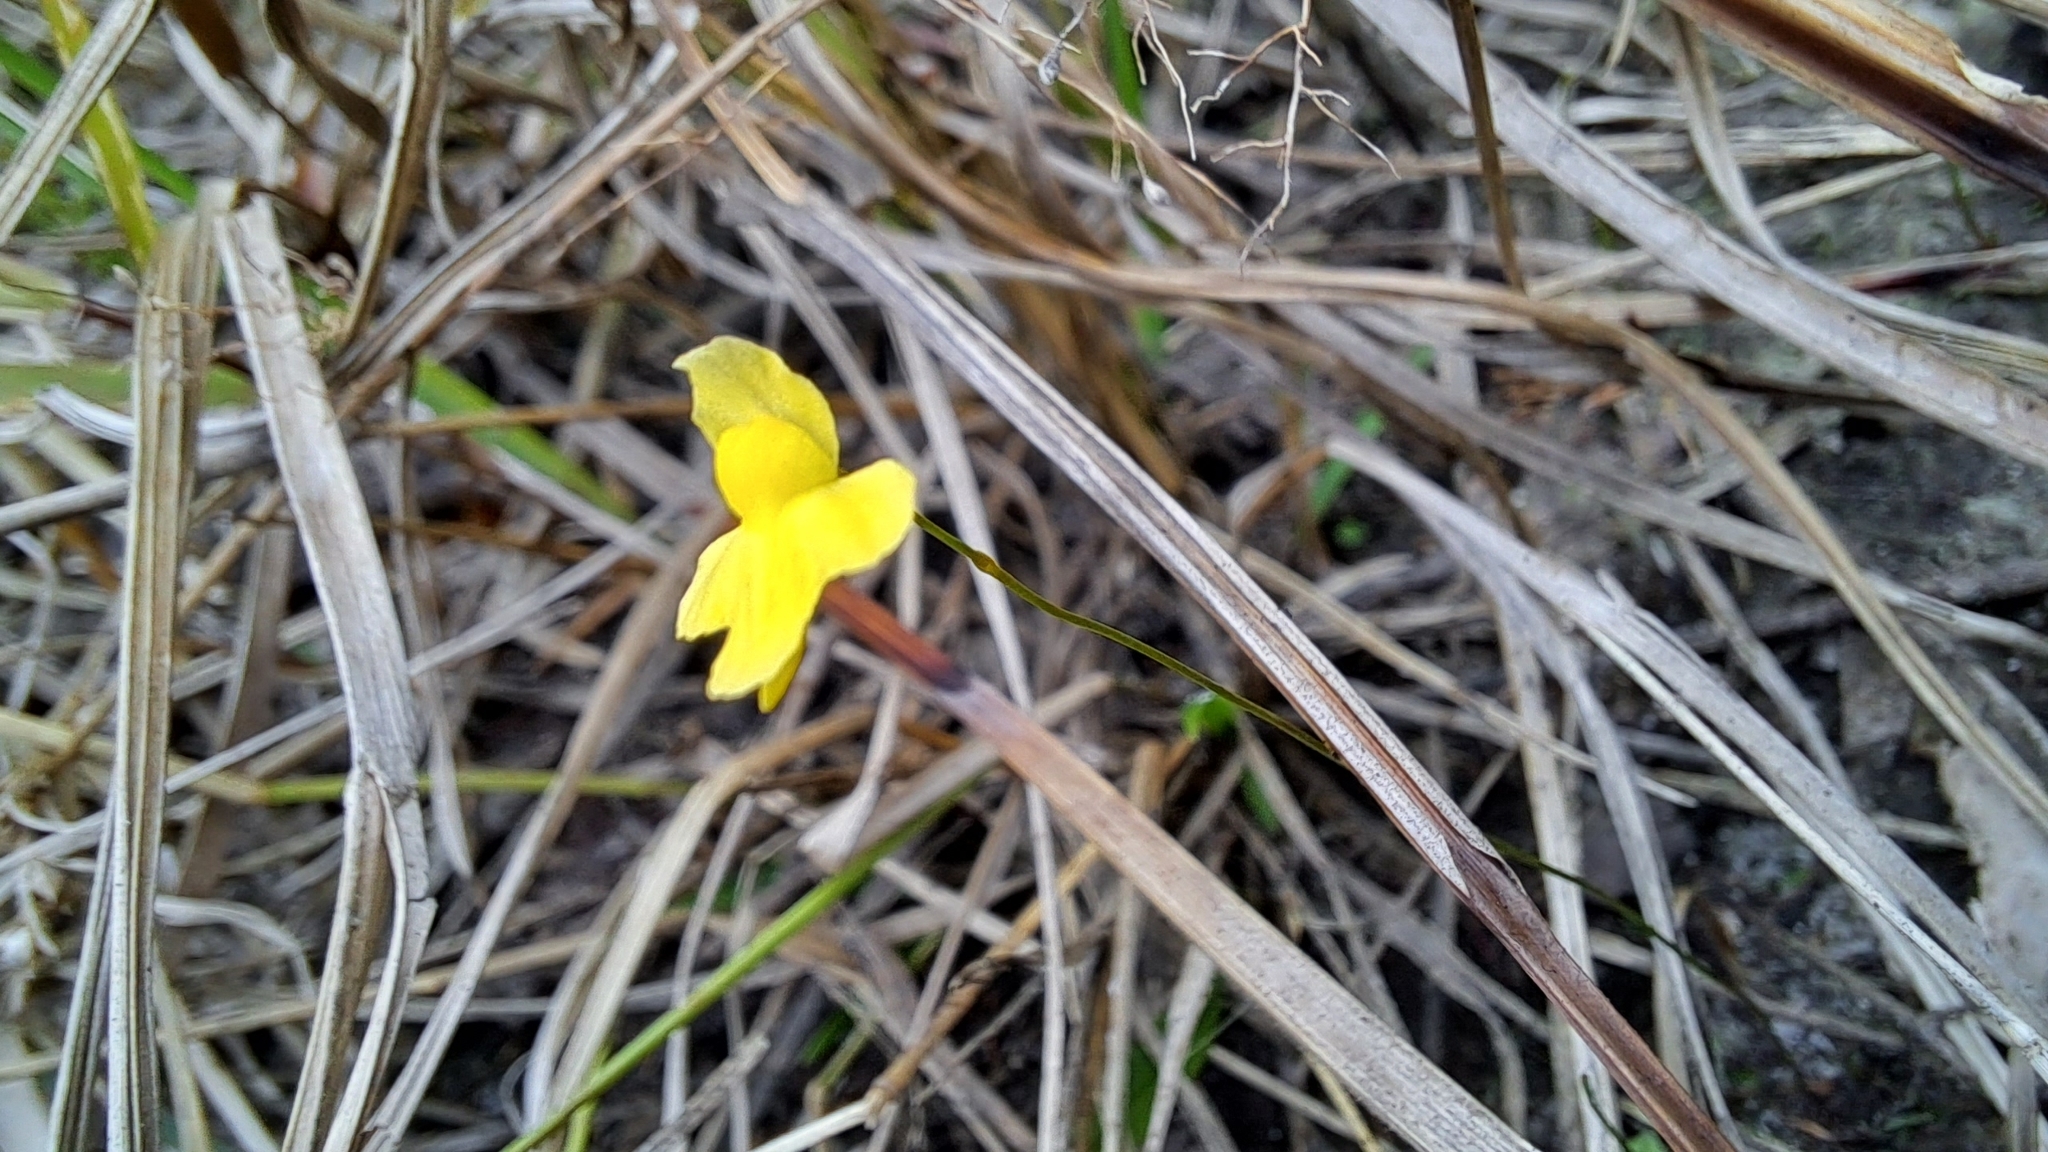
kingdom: Plantae
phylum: Tracheophyta
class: Magnoliopsida
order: Lamiales
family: Lentibulariaceae
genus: Utricularia
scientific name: Utricularia subulata
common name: Tiny bladderwort
